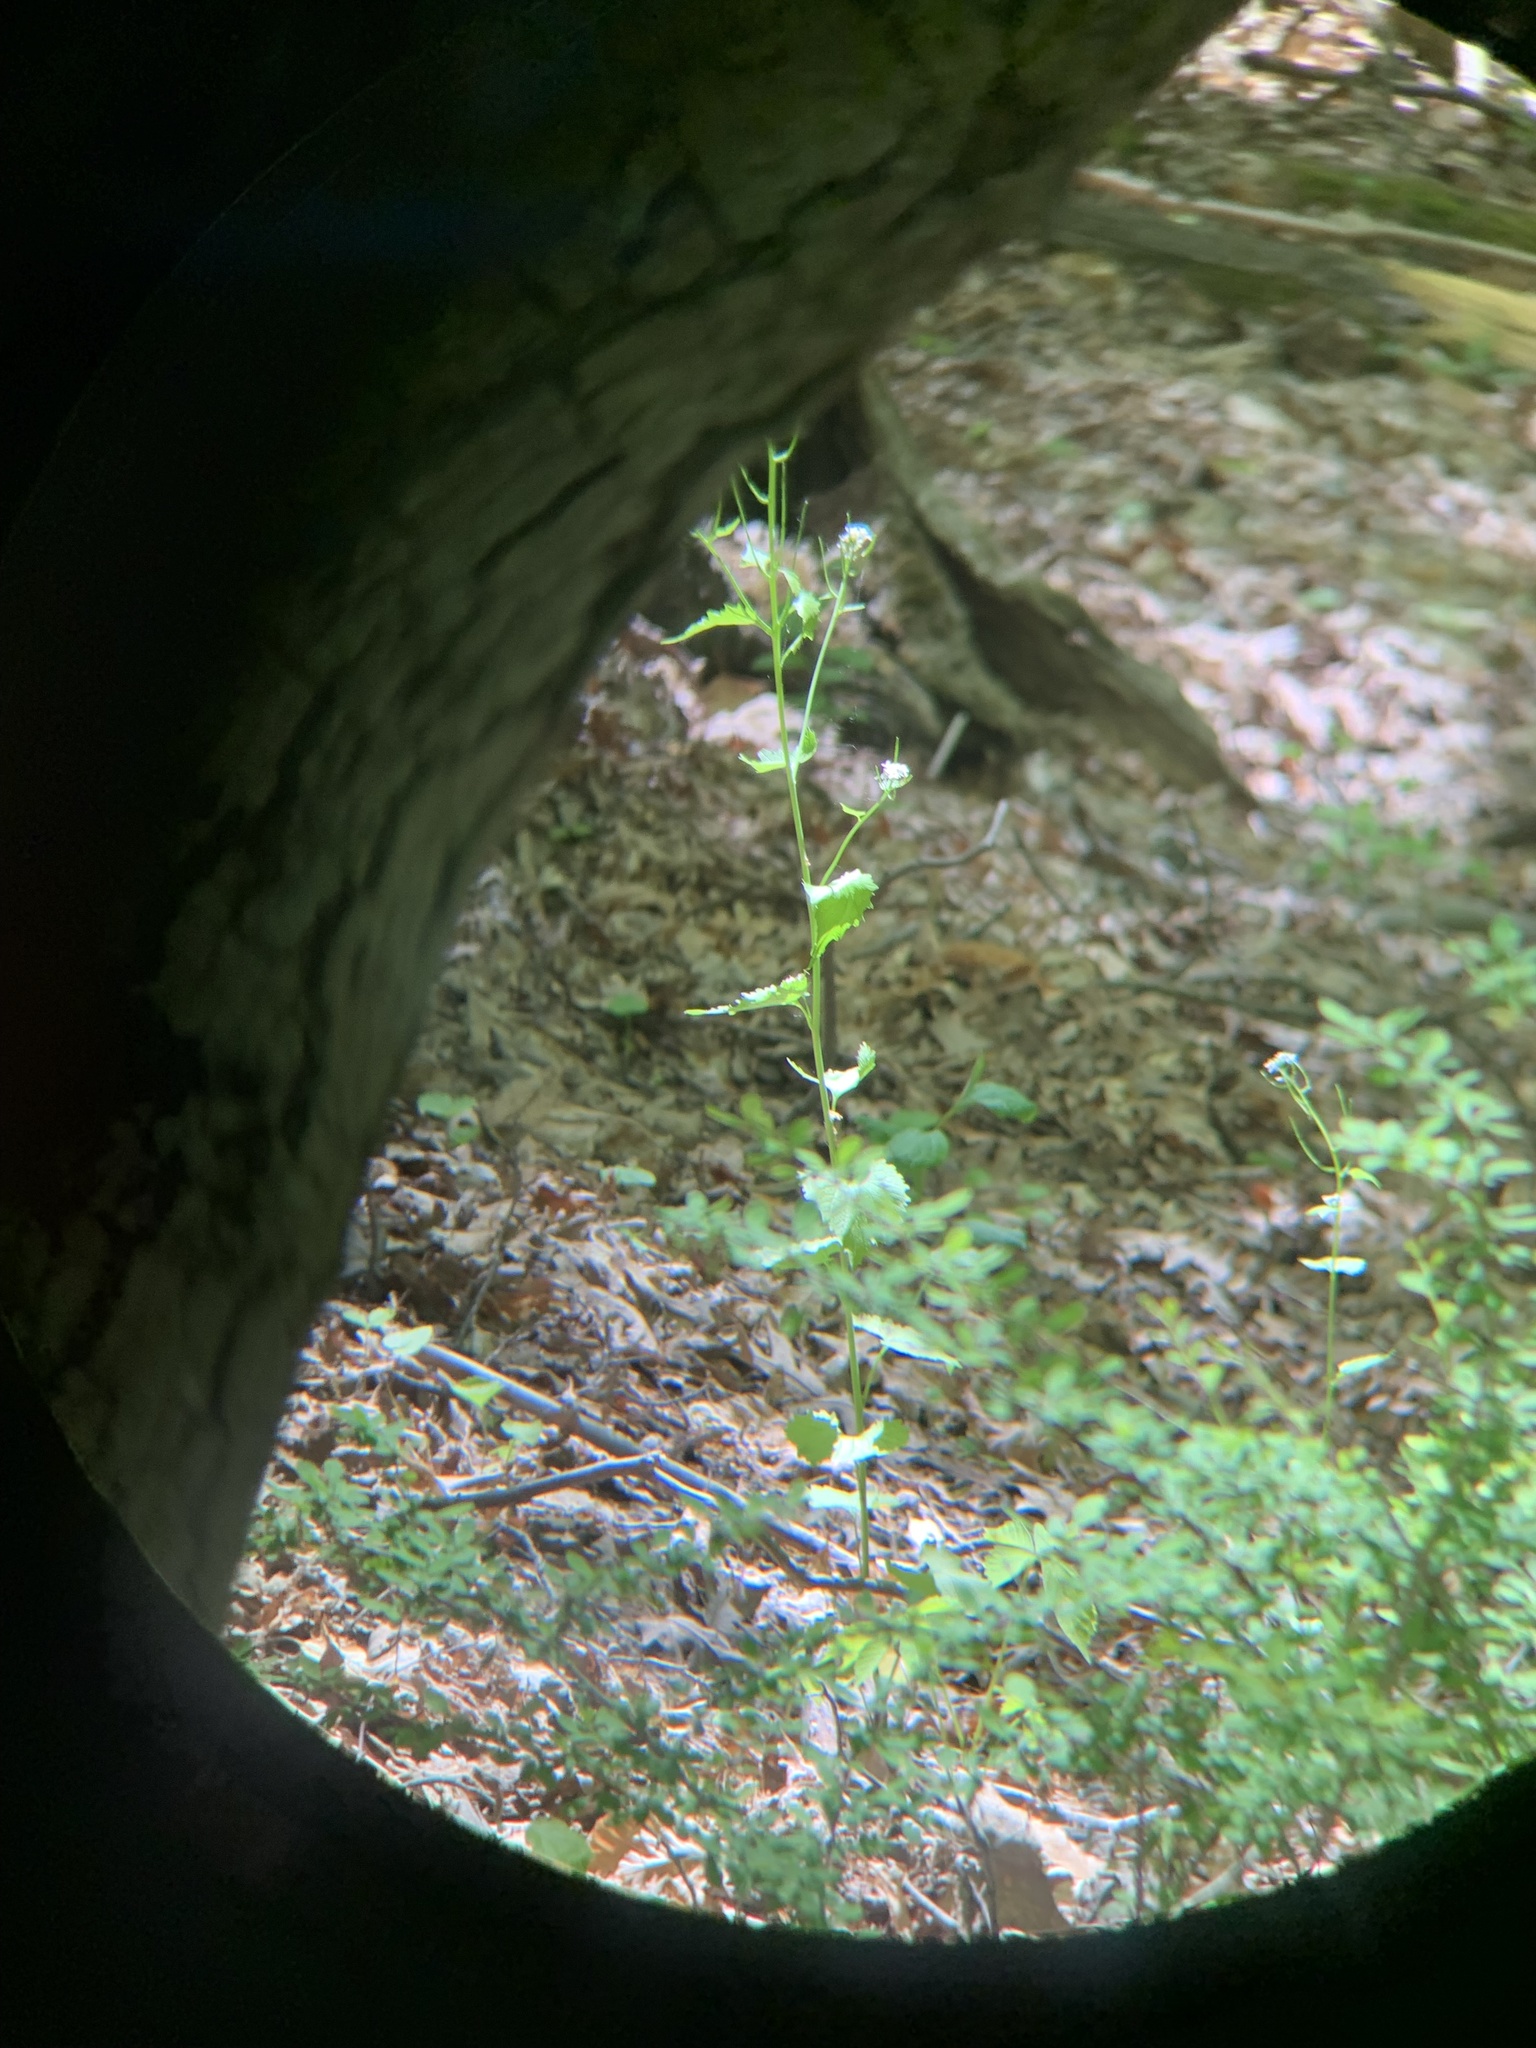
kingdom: Plantae
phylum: Tracheophyta
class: Magnoliopsida
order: Brassicales
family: Brassicaceae
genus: Alliaria
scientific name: Alliaria petiolata
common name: Garlic mustard
